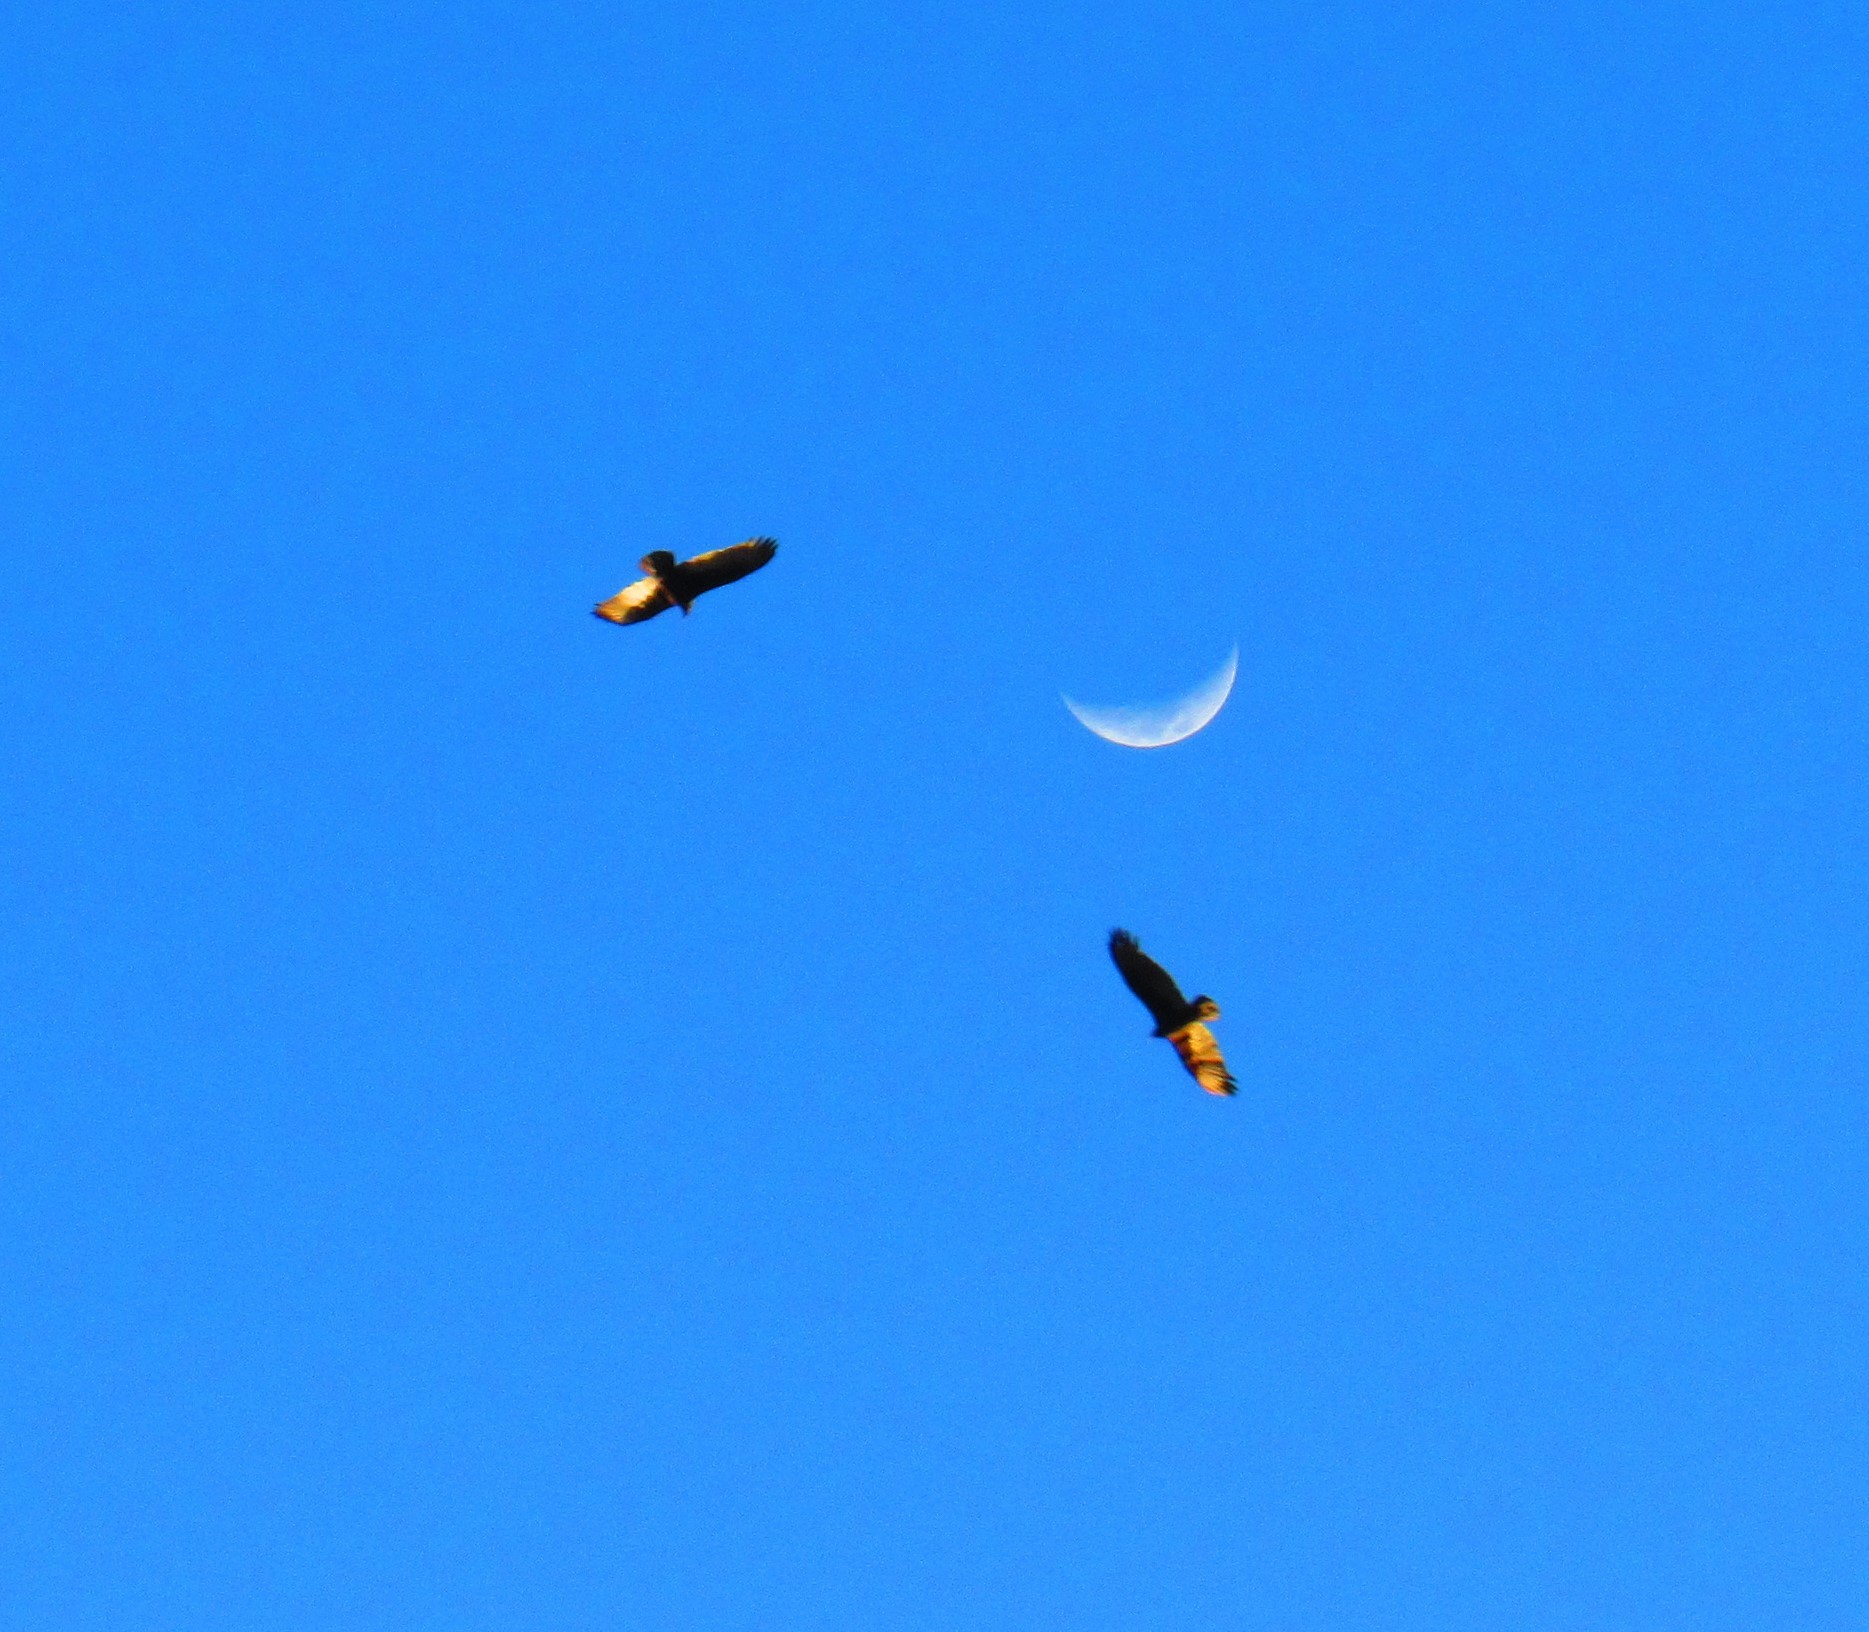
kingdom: Animalia
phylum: Chordata
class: Aves
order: Accipitriformes
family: Cathartidae
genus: Cathartes
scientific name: Cathartes aura
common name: Turkey vulture
